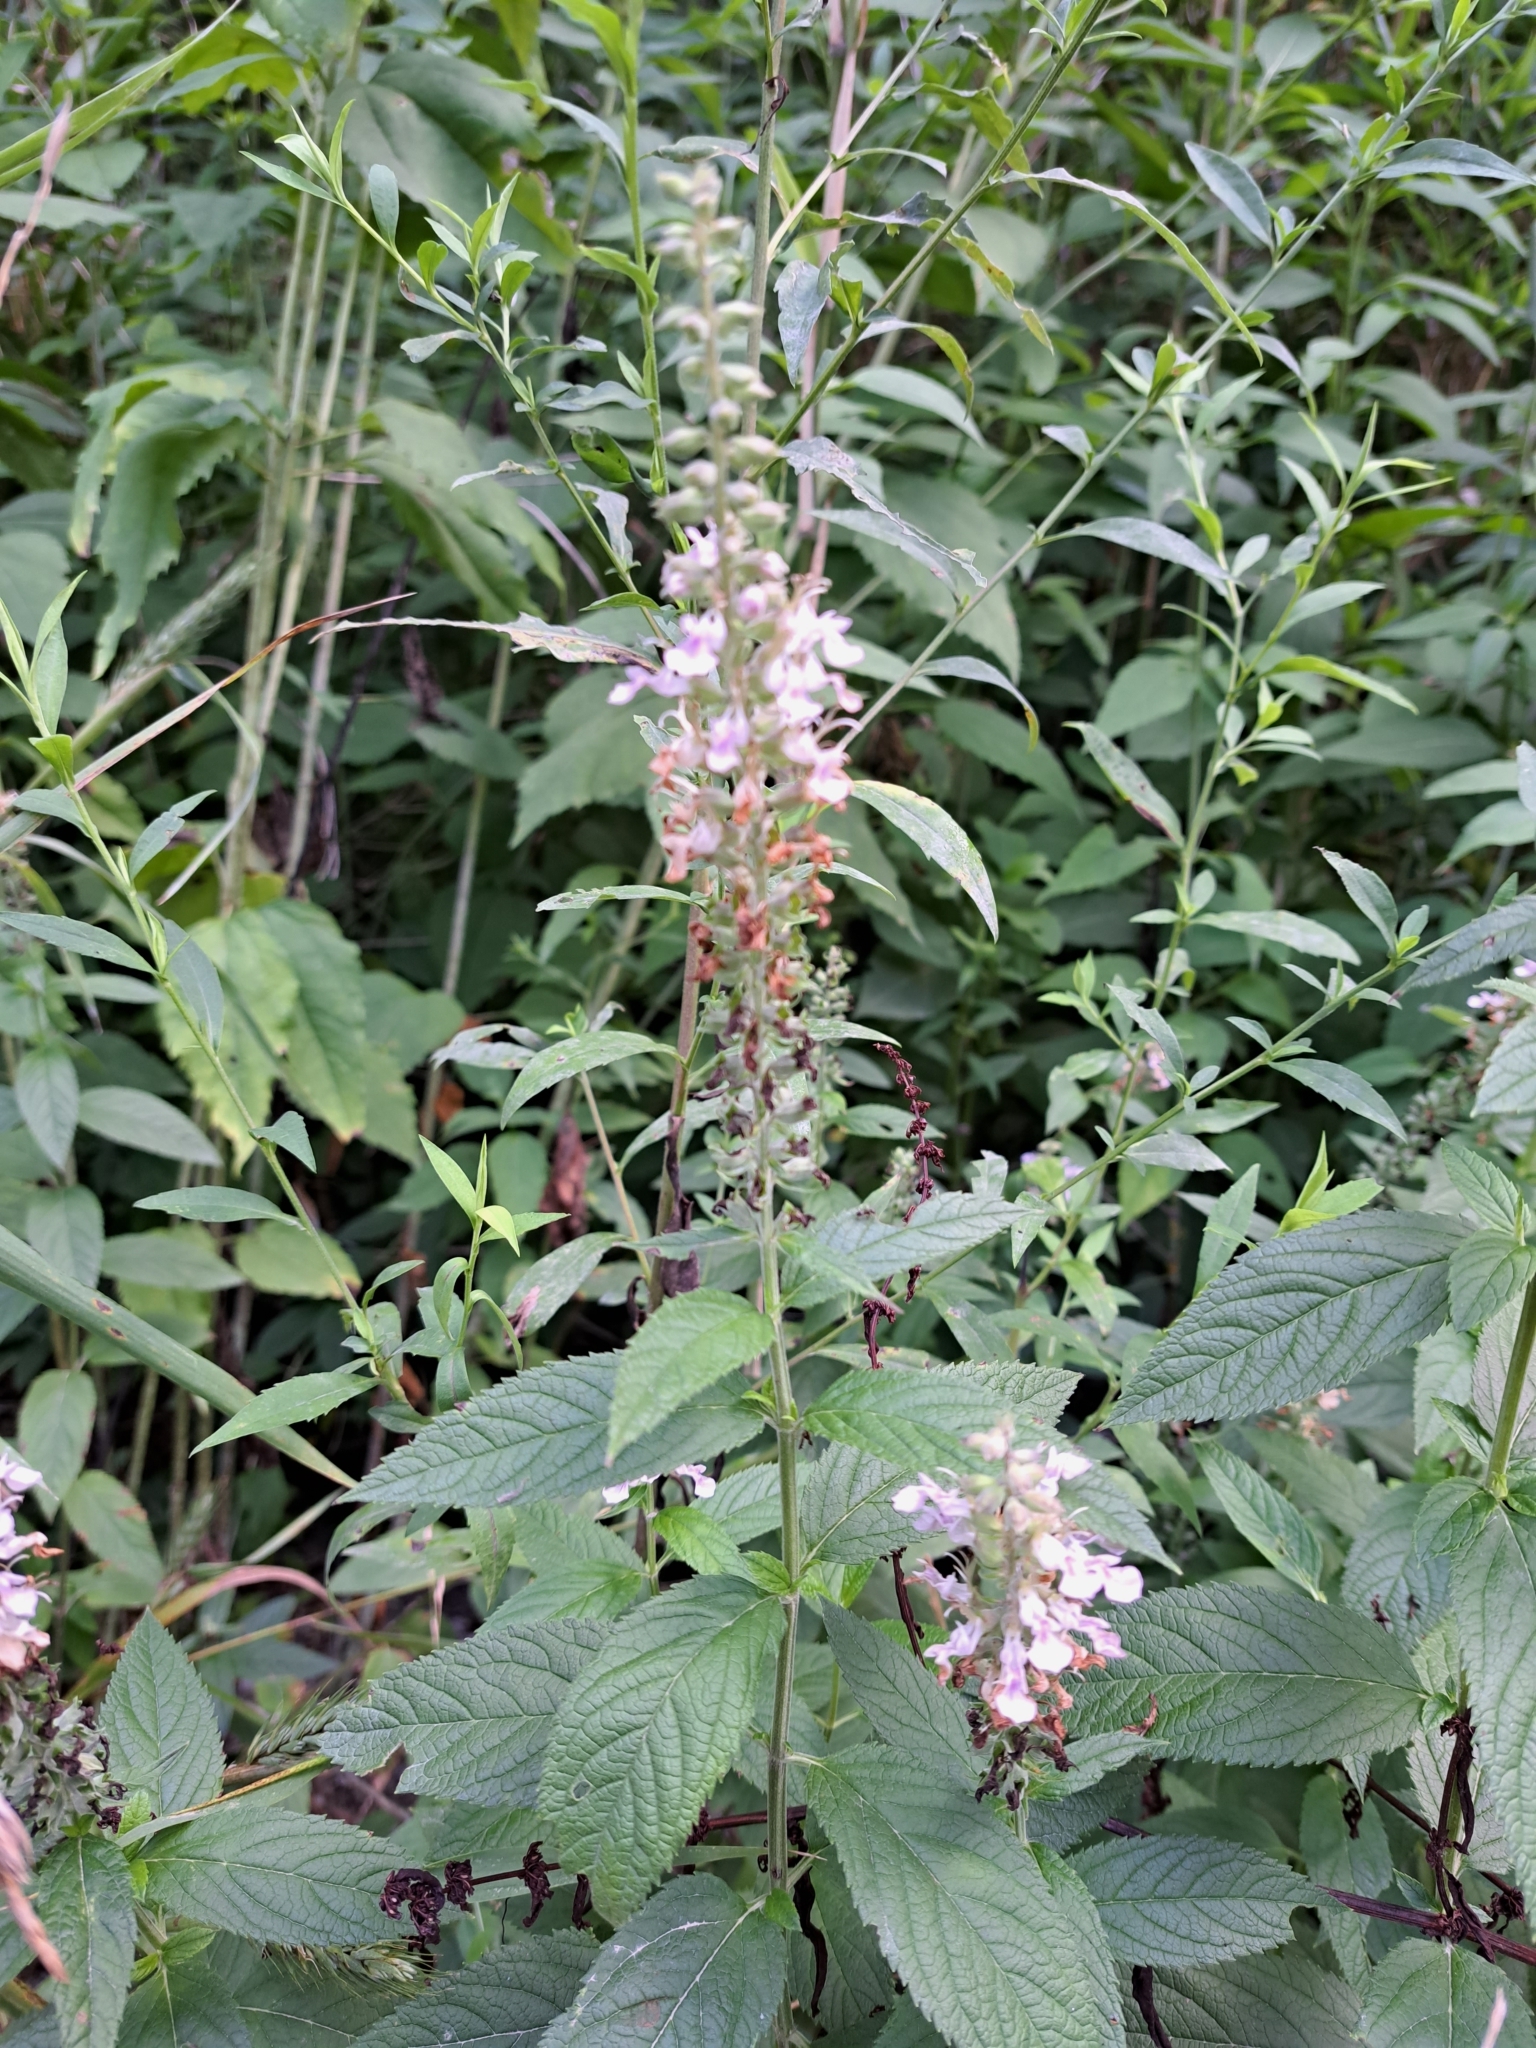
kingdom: Plantae
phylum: Tracheophyta
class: Magnoliopsida
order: Lamiales
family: Lamiaceae
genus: Teucrium
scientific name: Teucrium canadense
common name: American germander
